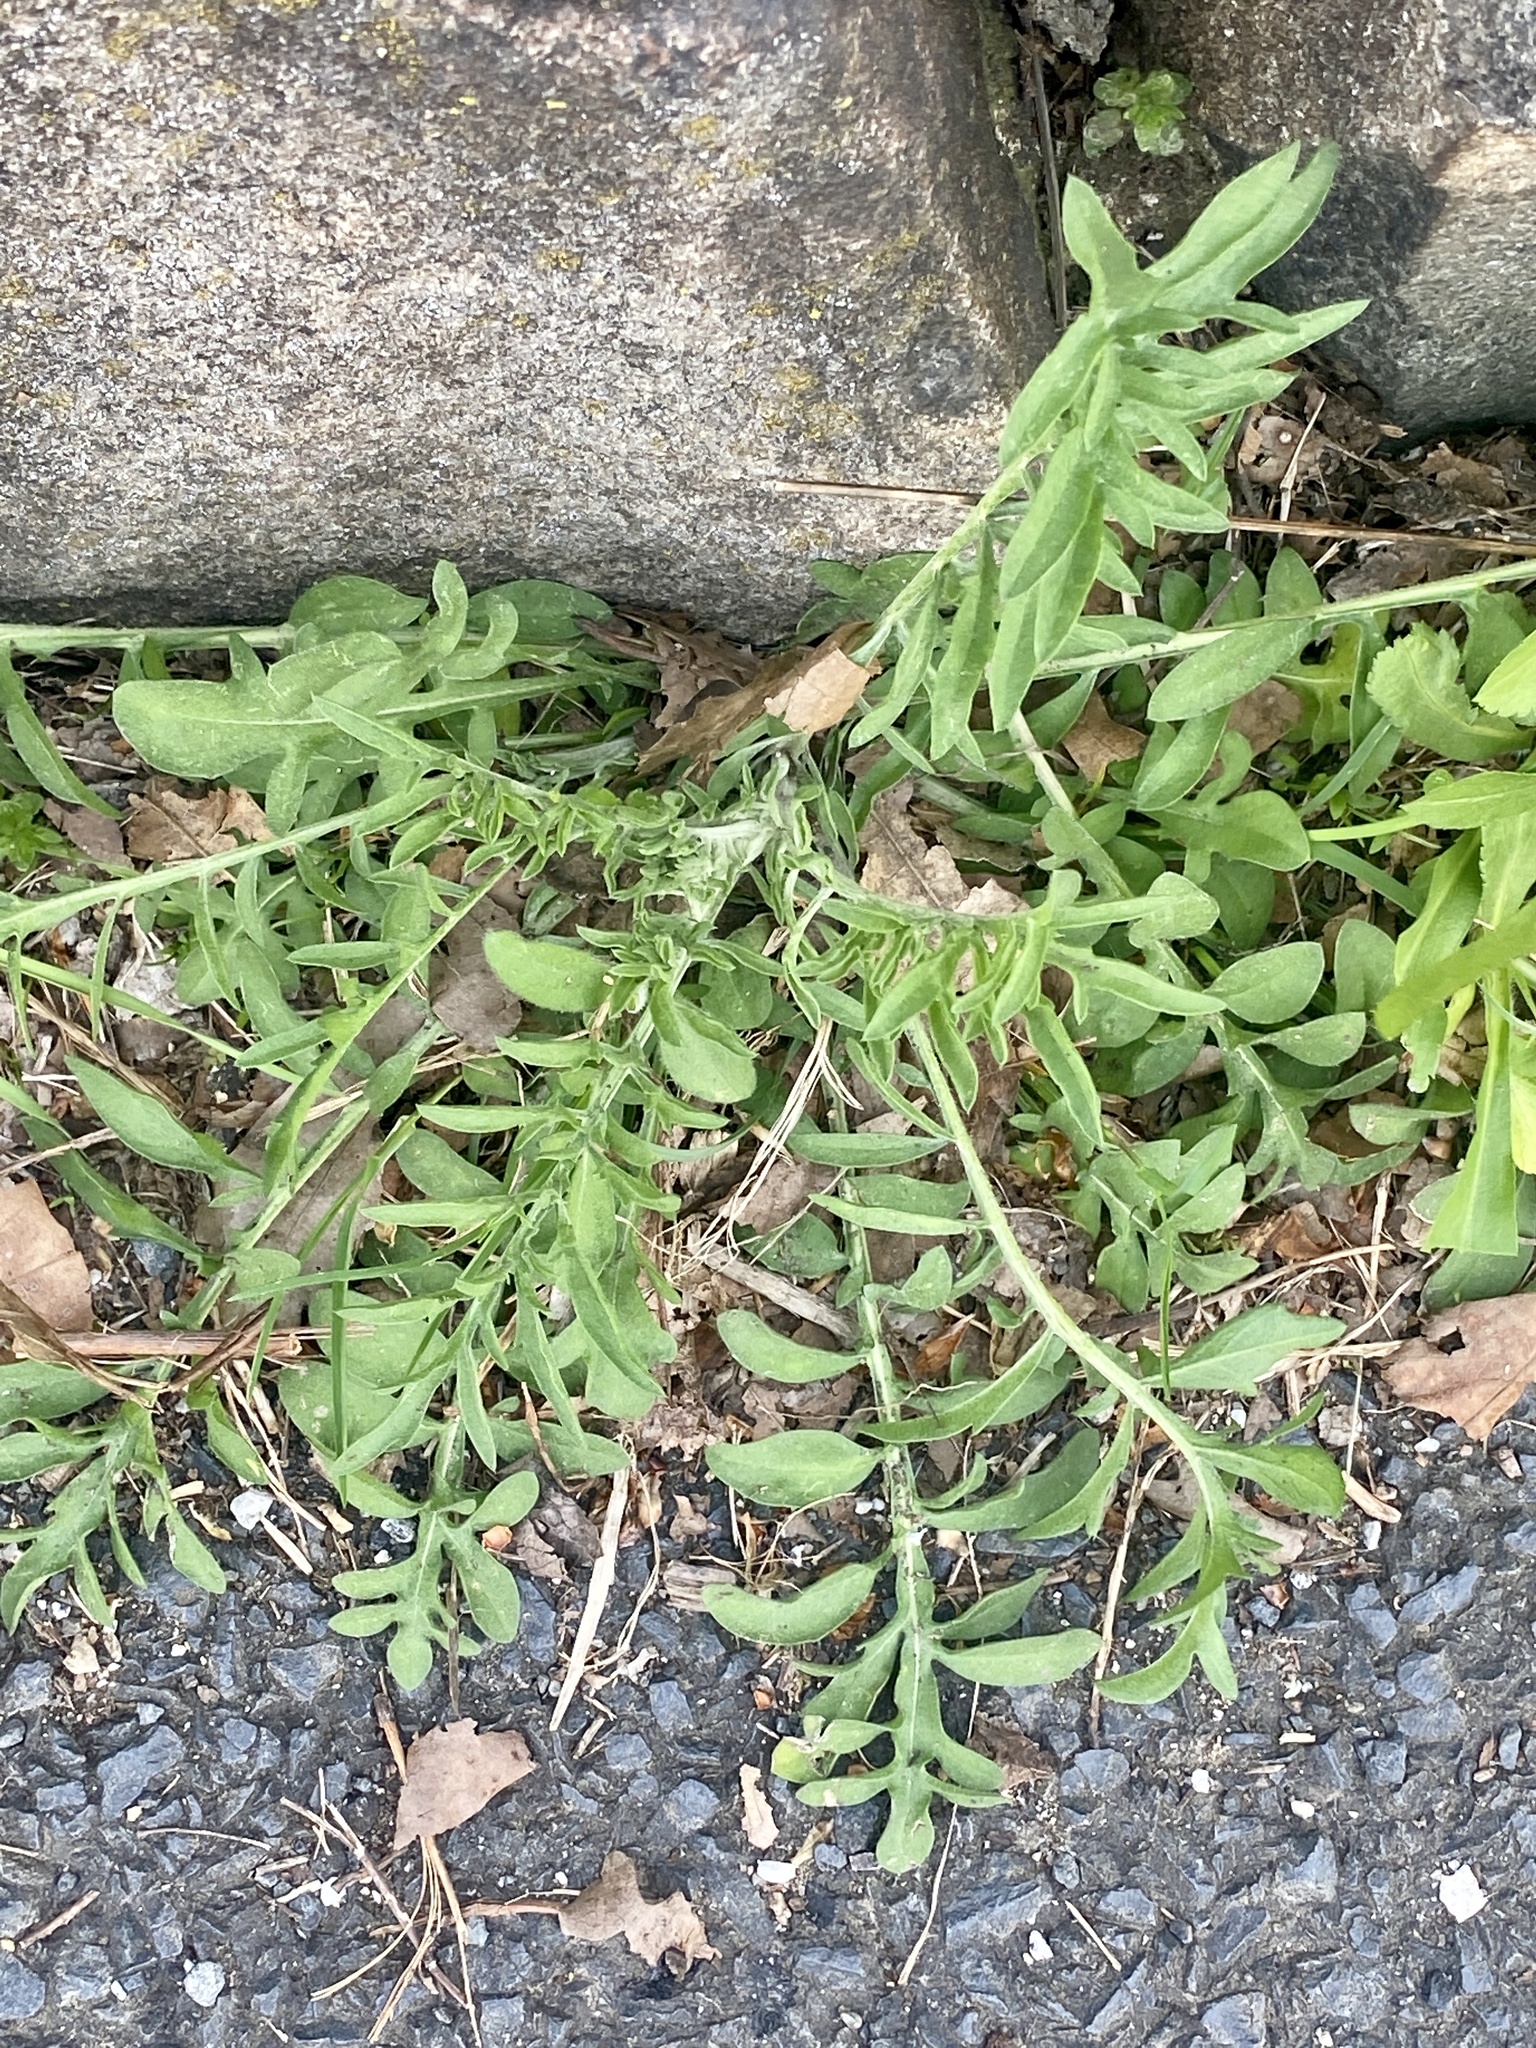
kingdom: Plantae
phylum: Tracheophyta
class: Magnoliopsida
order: Asterales
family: Asteraceae
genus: Centaurea
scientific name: Centaurea stoebe
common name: Spotted knapweed
